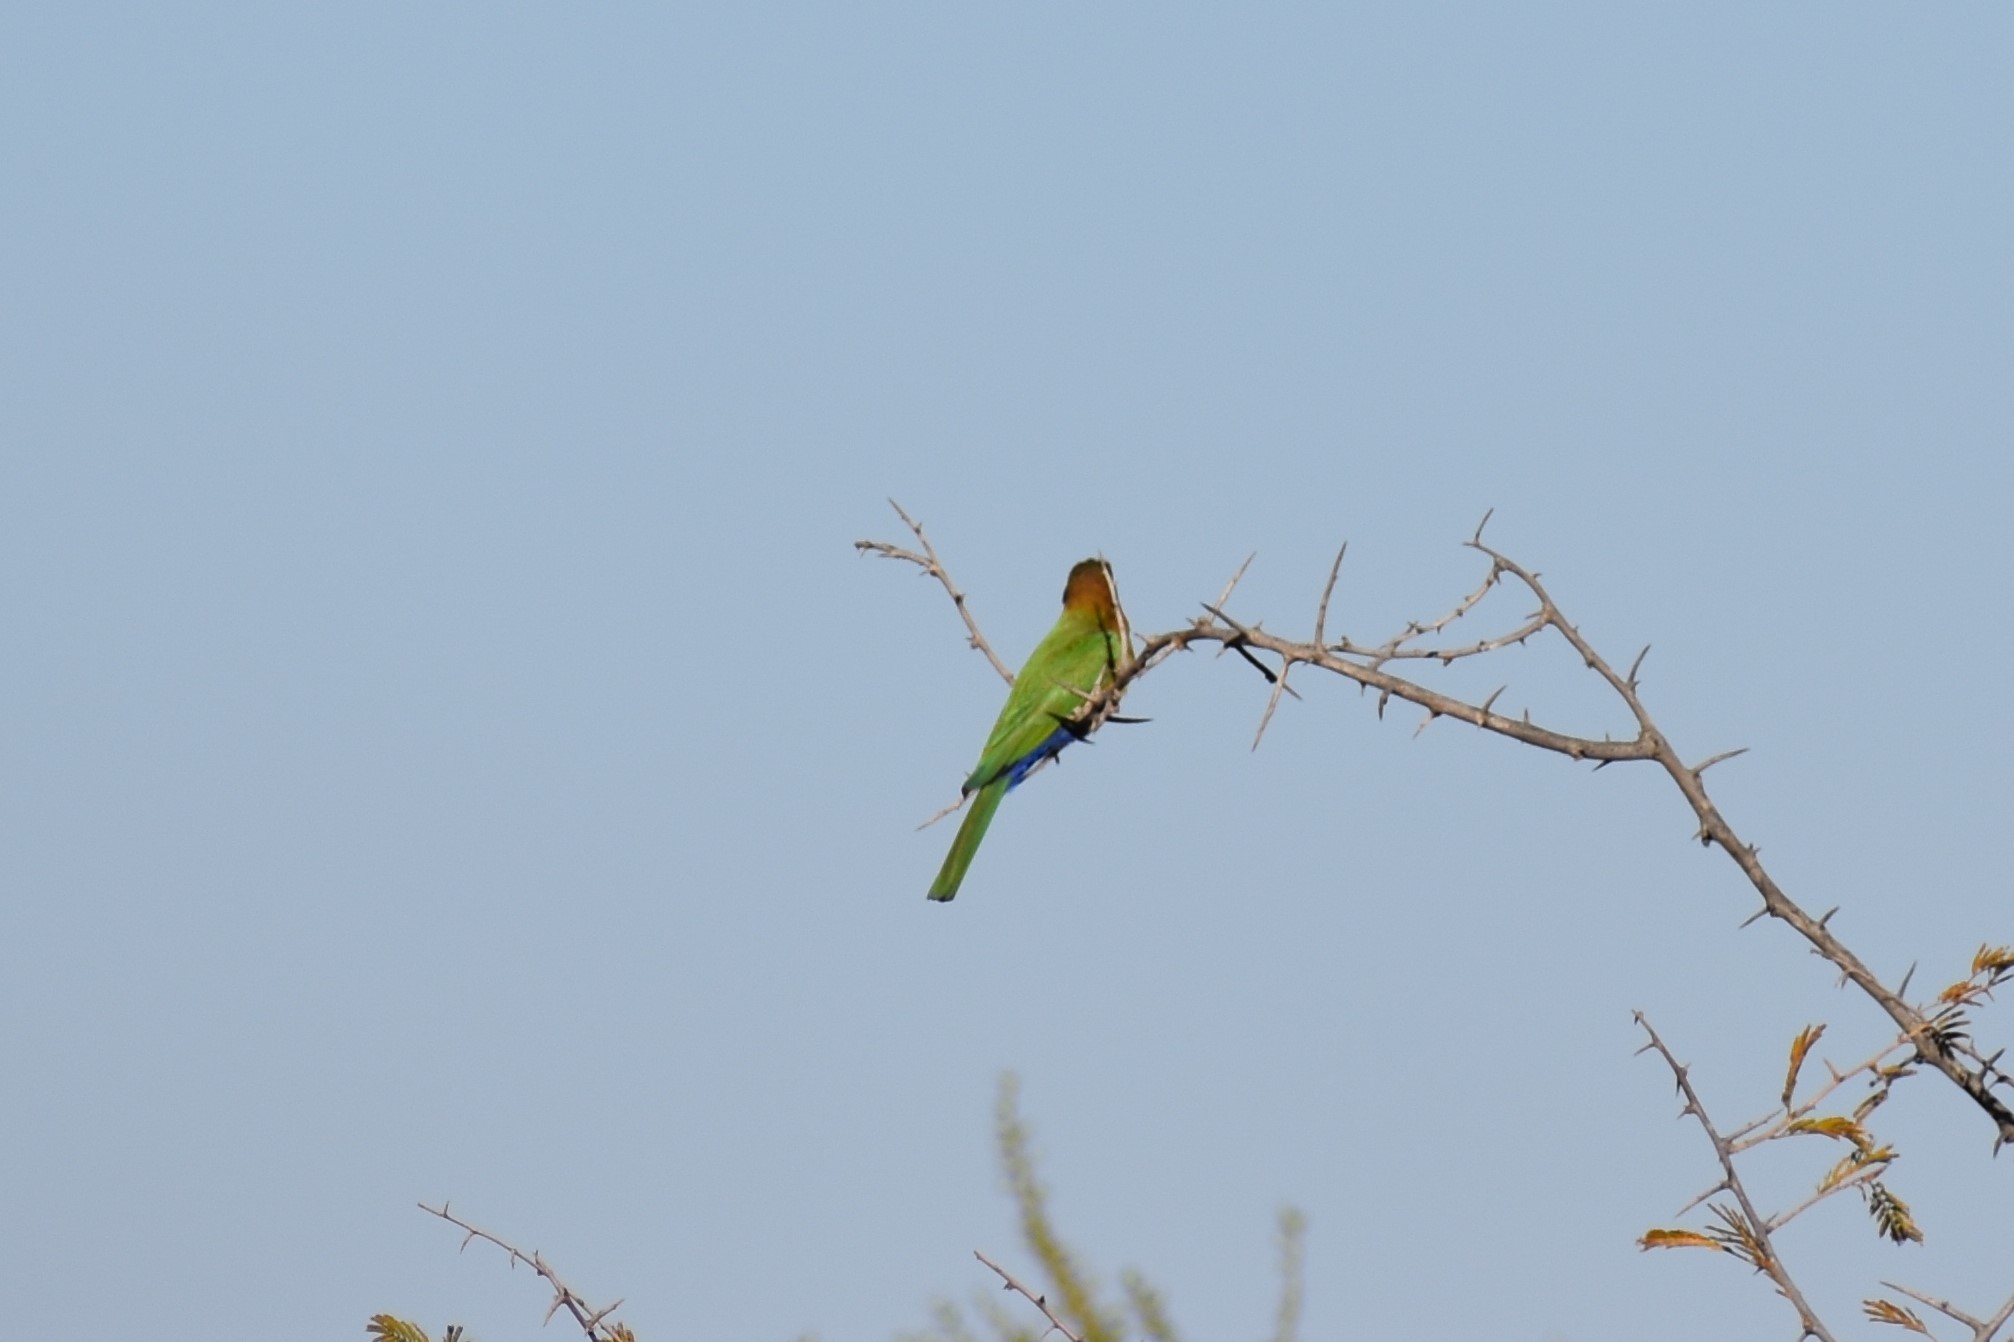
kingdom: Animalia
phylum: Chordata
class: Aves
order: Coraciiformes
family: Meropidae
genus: Merops
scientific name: Merops bullockoides
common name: White-fronted bee-eater
